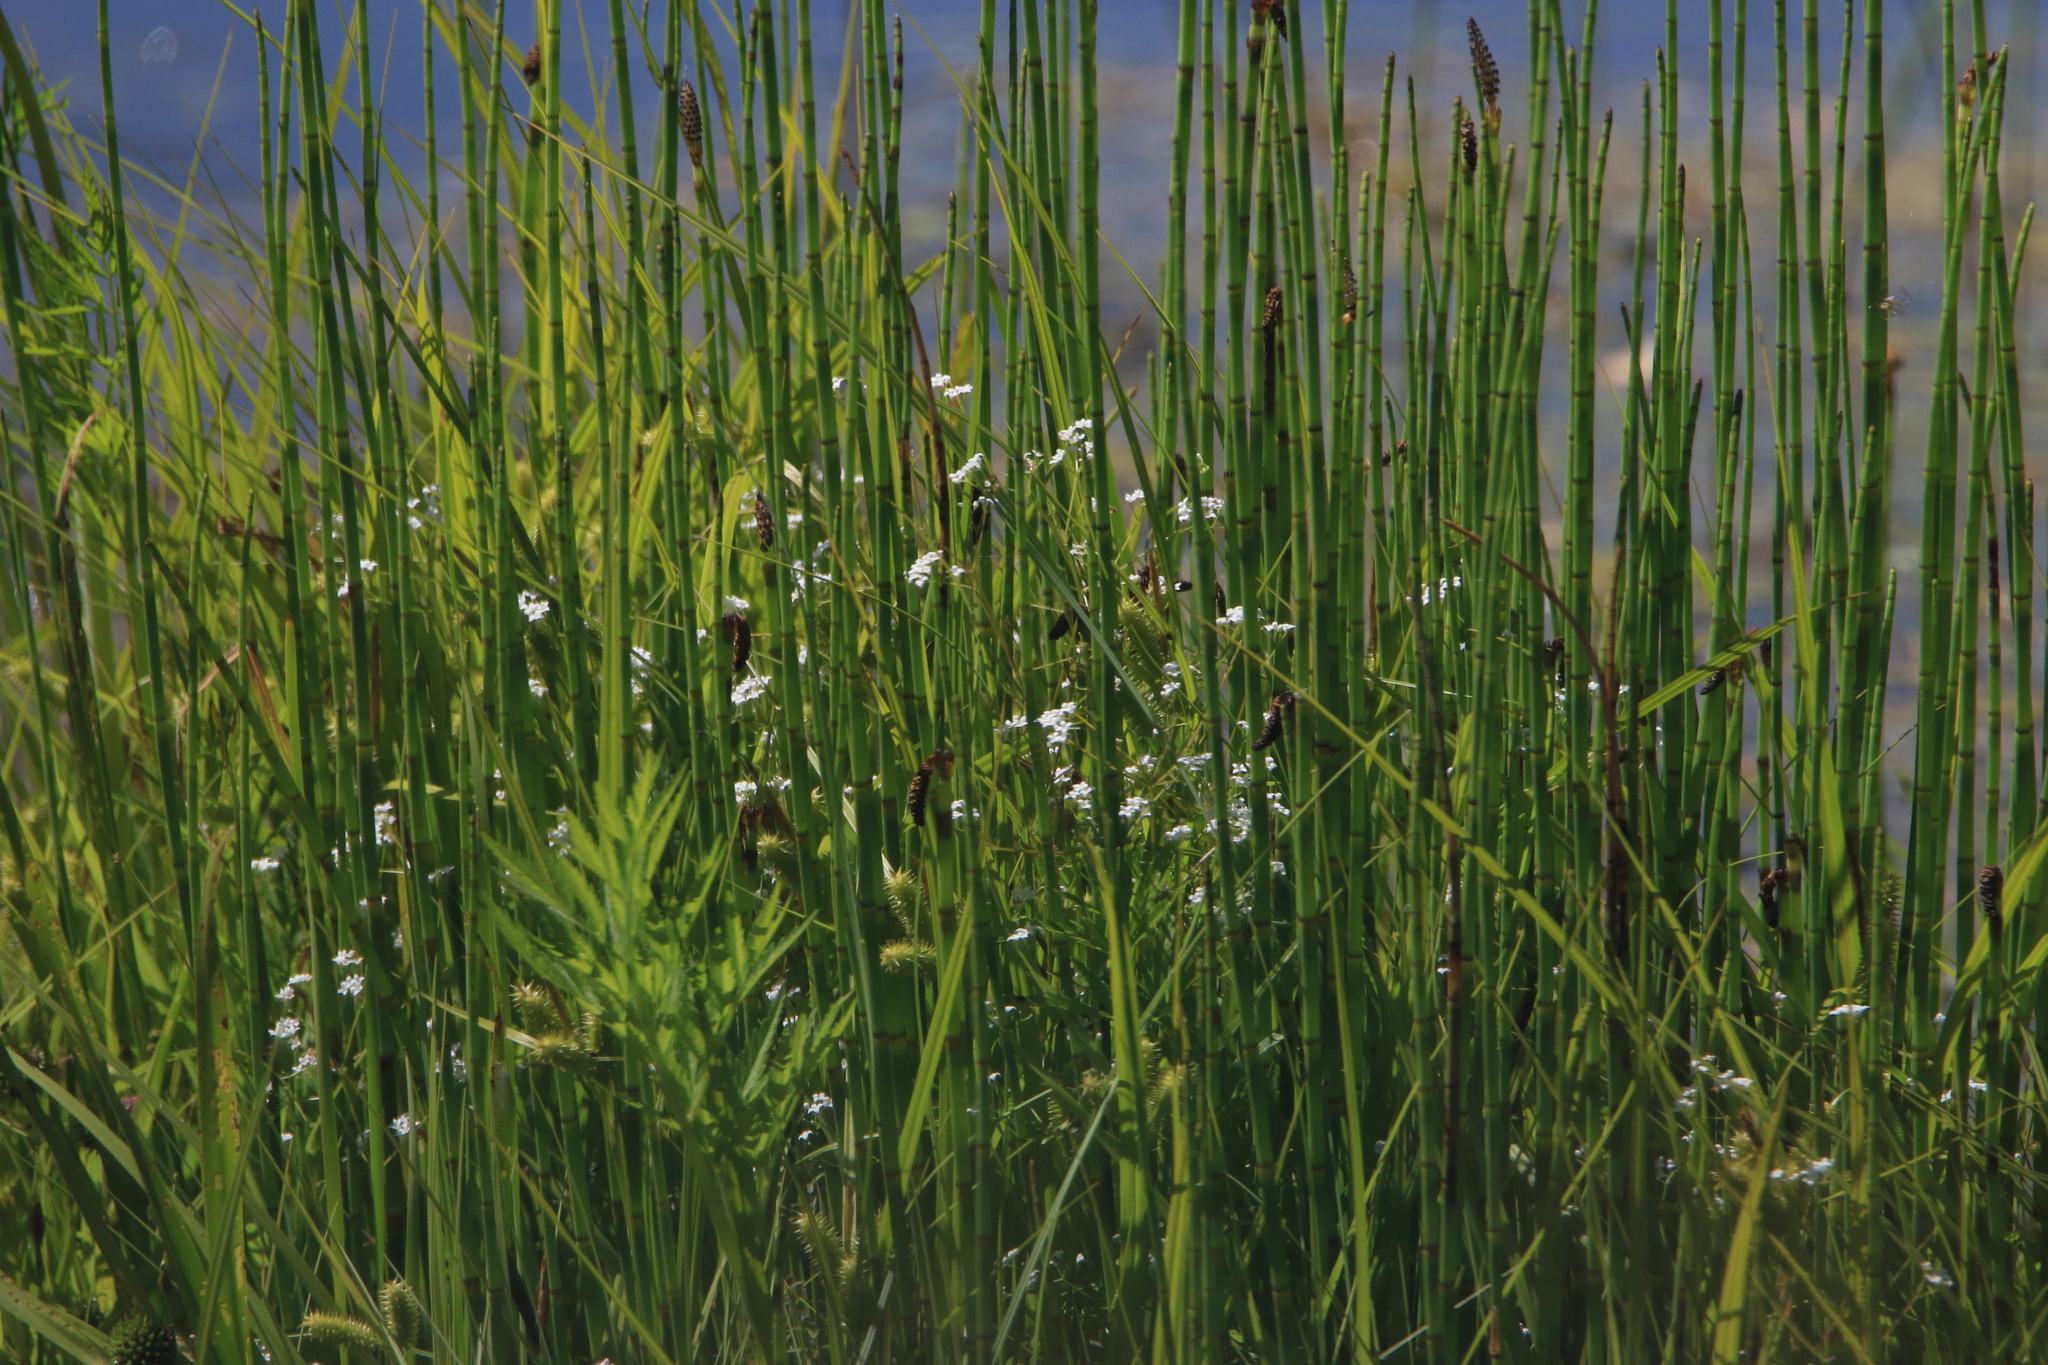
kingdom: Plantae
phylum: Tracheophyta
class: Magnoliopsida
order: Apiales
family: Apiaceae
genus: Cicuta
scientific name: Cicuta virosa
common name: Cowbane
